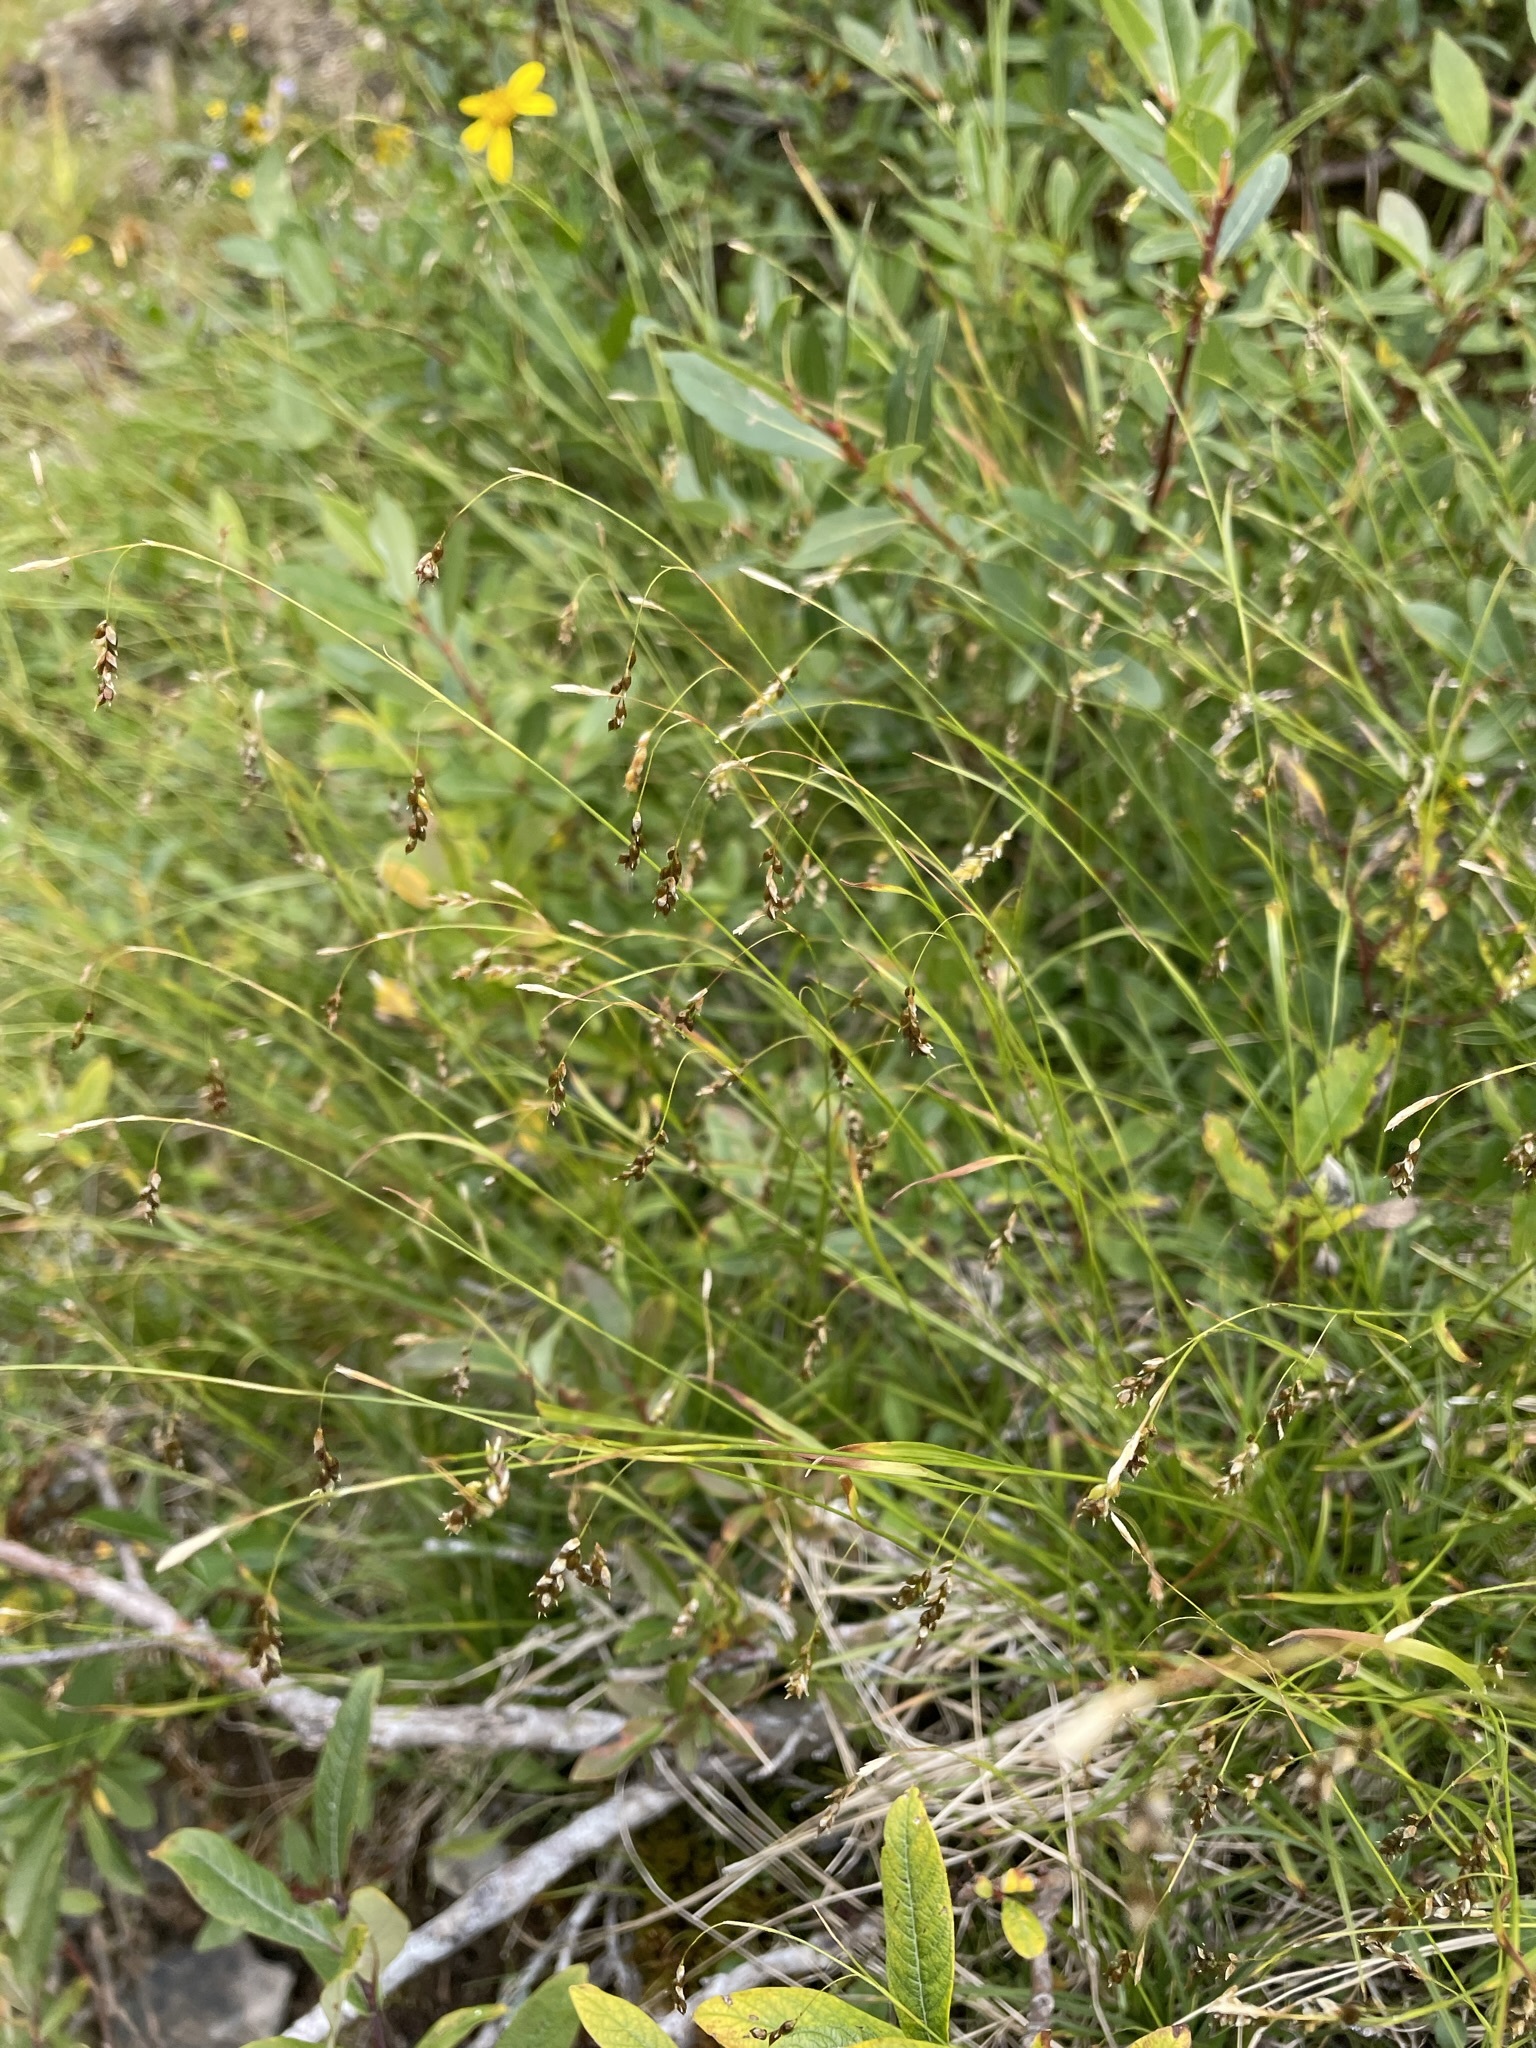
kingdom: Plantae
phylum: Tracheophyta
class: Liliopsida
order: Poales
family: Cyperaceae
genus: Carex
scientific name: Carex capillaris
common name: Hair sedge
